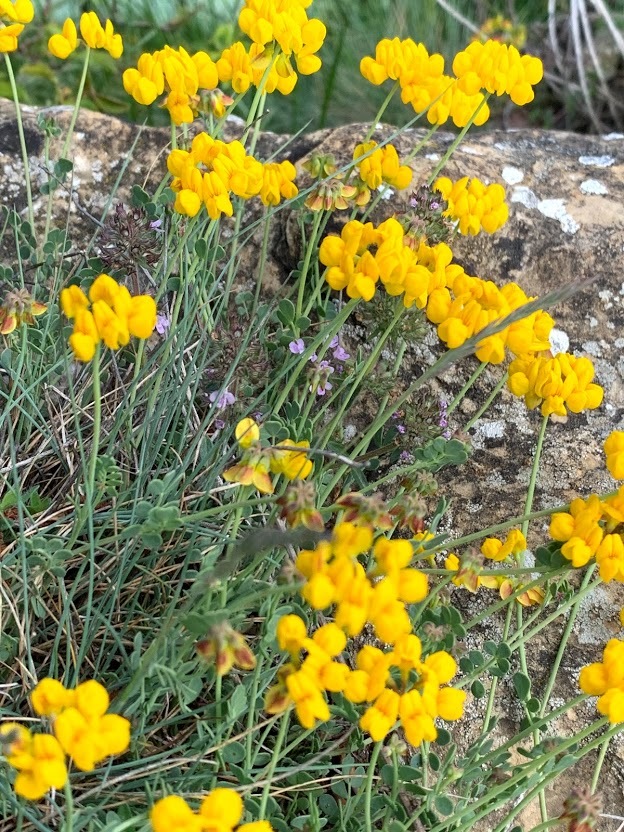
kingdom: Plantae
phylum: Tracheophyta
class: Magnoliopsida
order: Fabales
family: Fabaceae
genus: Coronilla
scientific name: Coronilla minima
